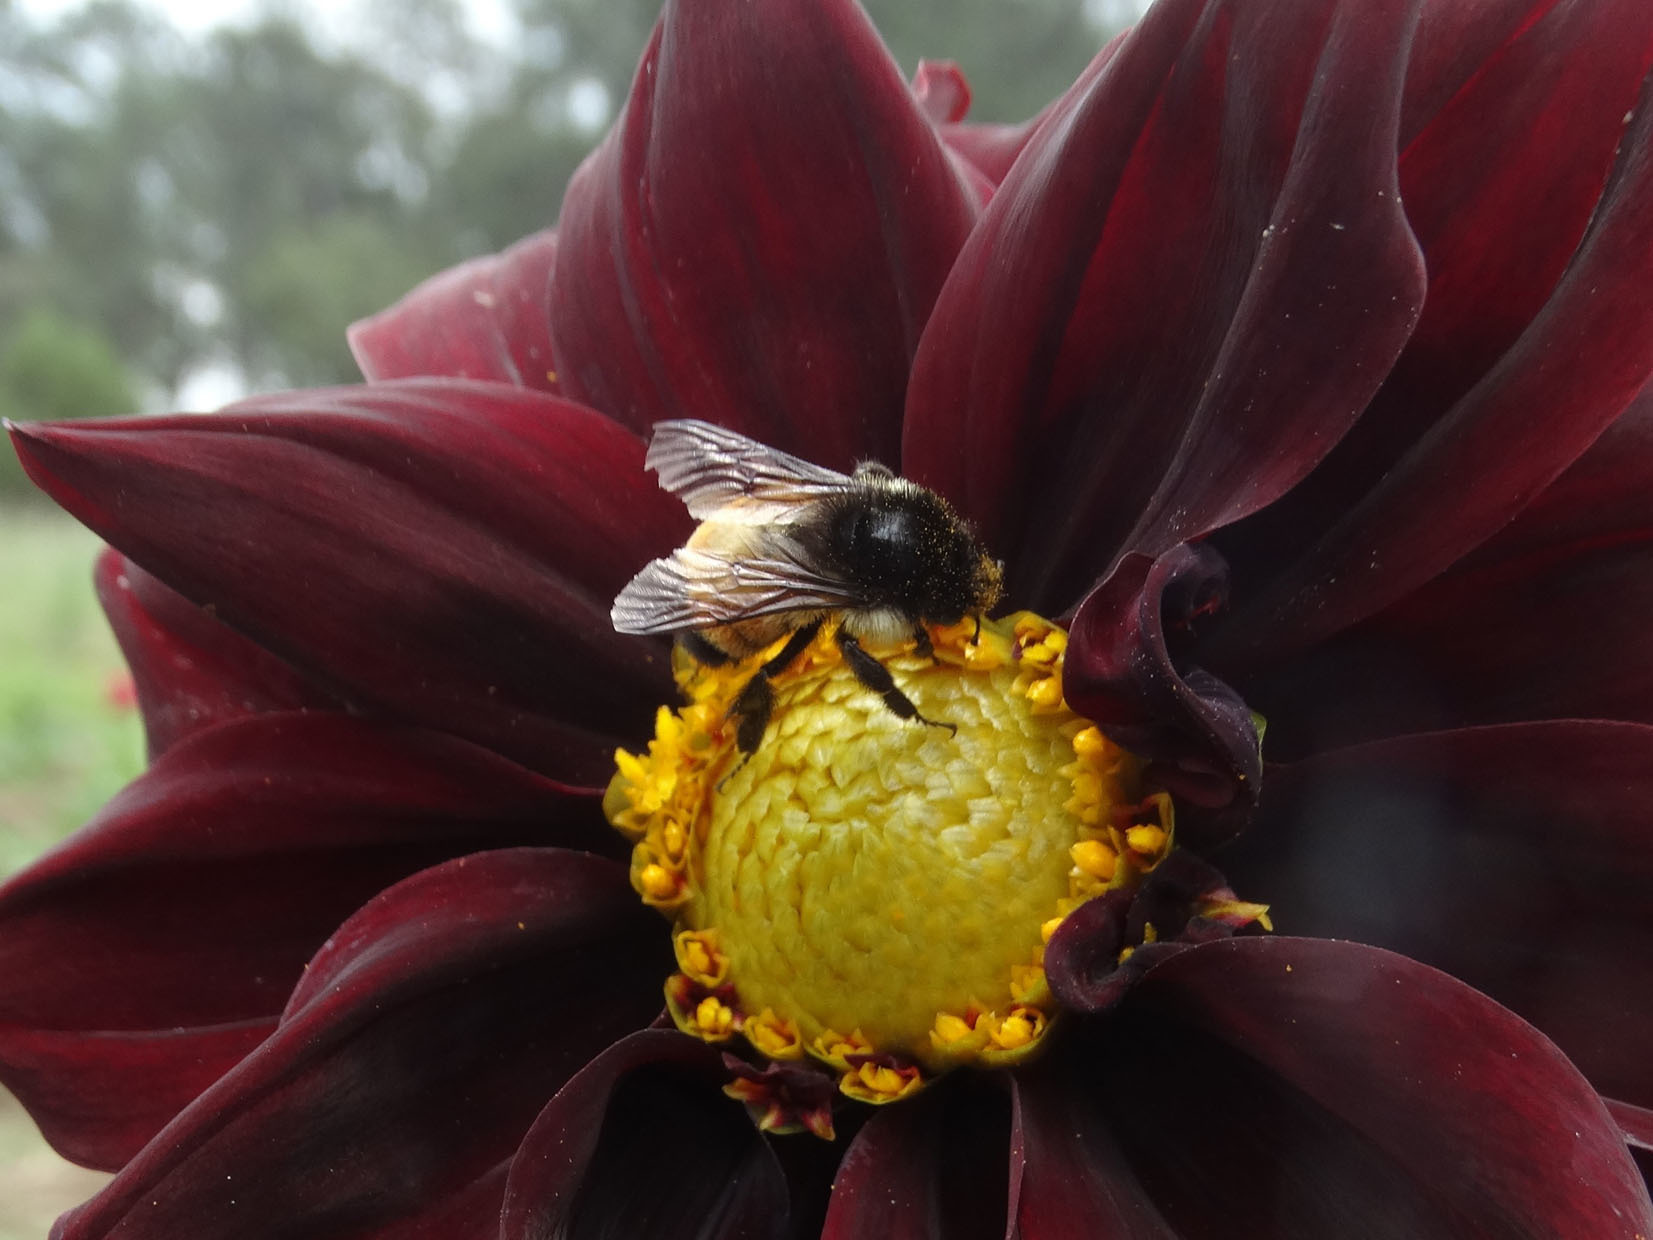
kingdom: Animalia
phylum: Arthropoda
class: Insecta
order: Hymenoptera
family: Apidae
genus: Bombus
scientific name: Bombus ephippiatus
